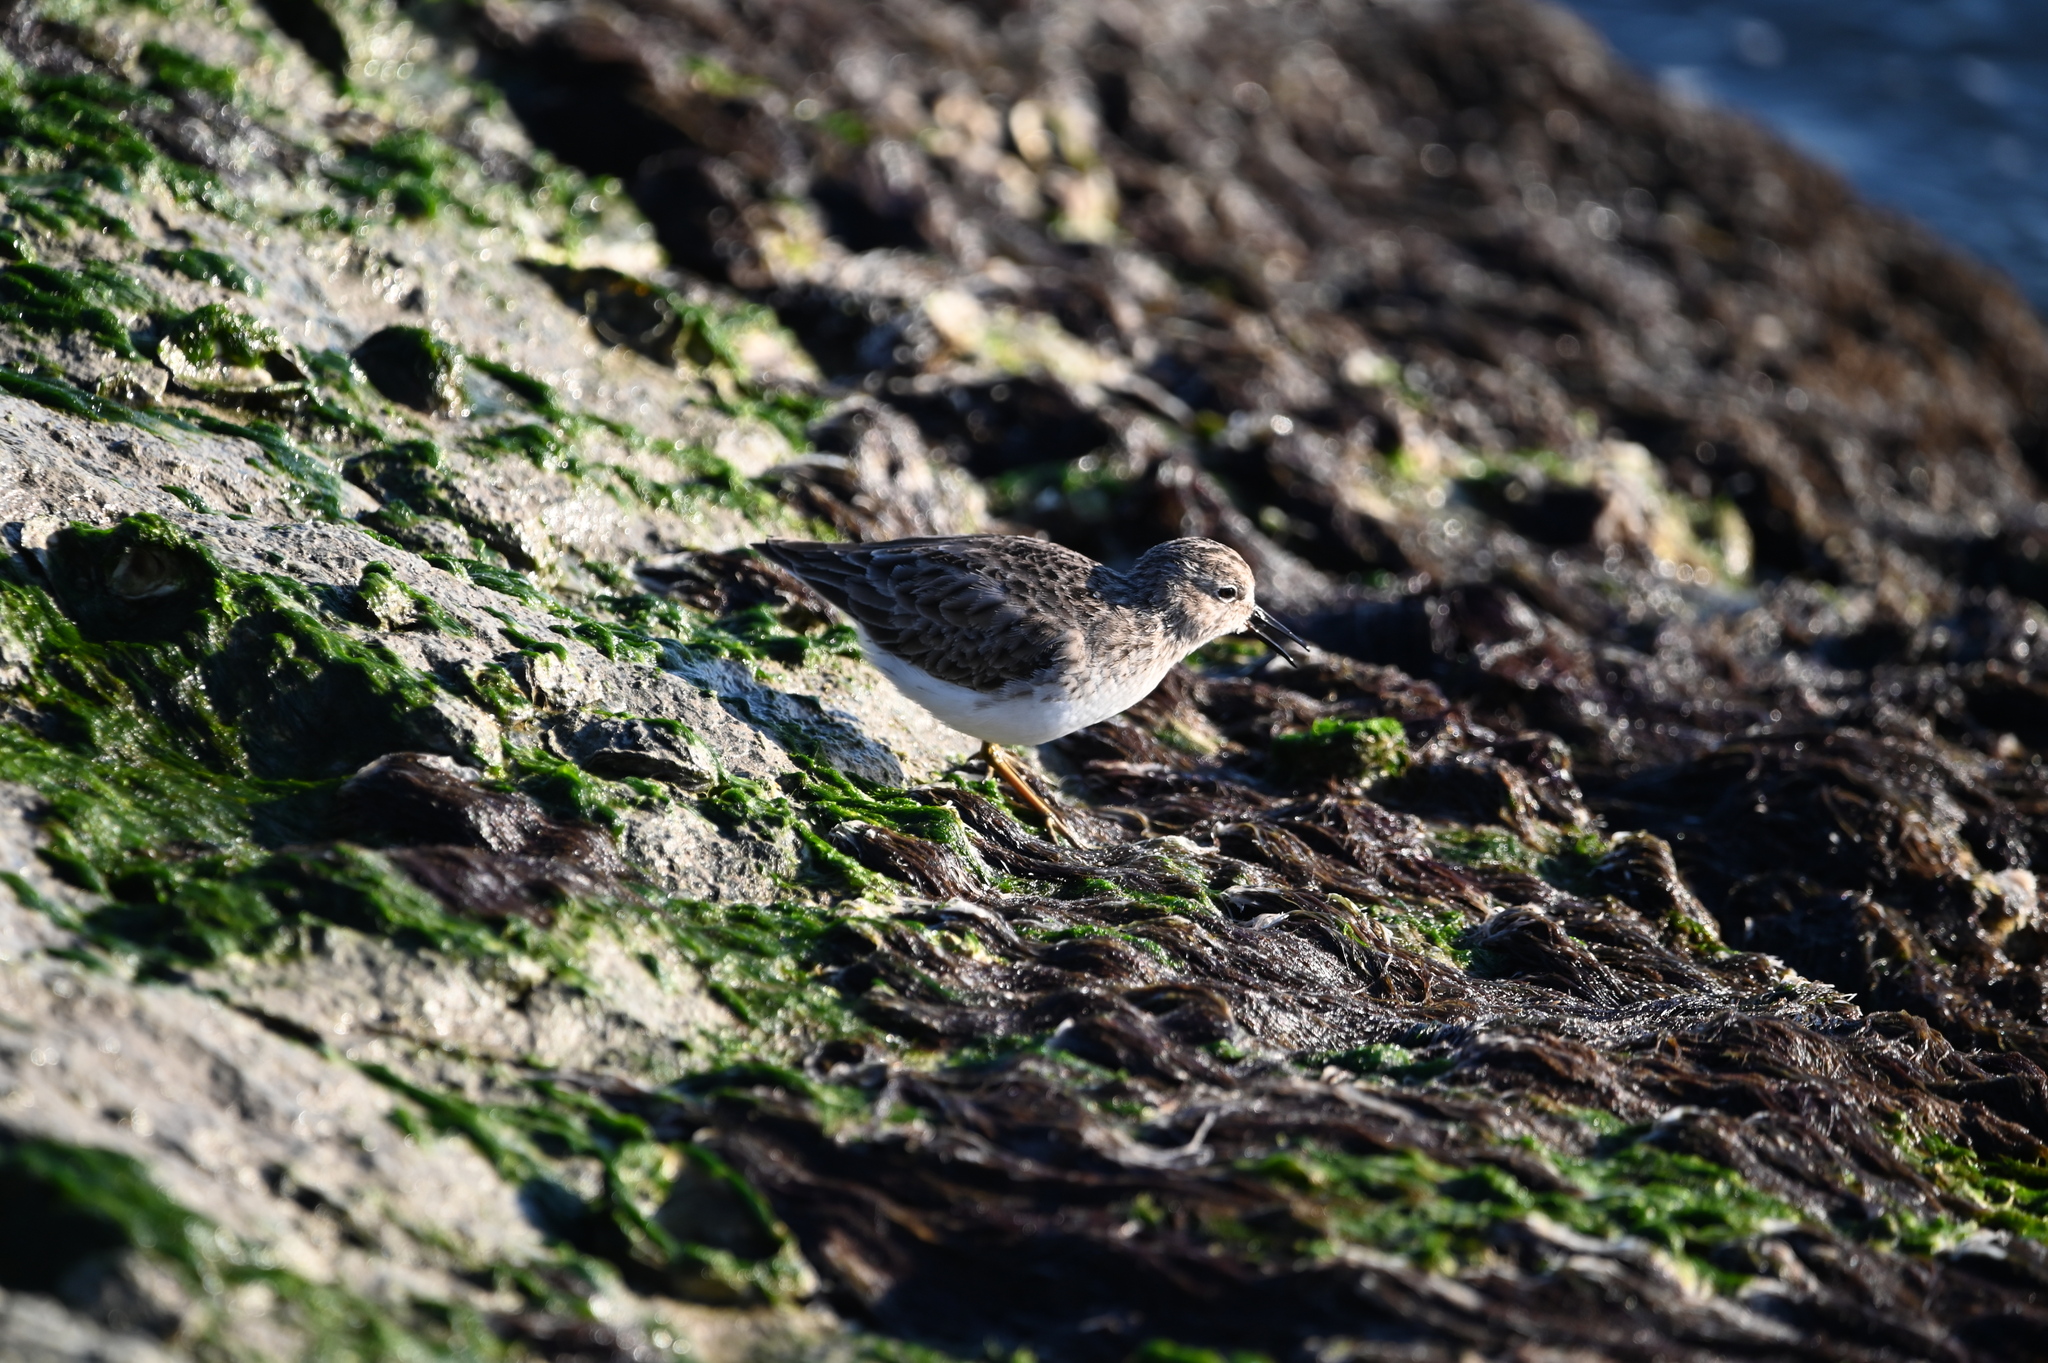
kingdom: Animalia
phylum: Chordata
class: Aves
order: Charadriiformes
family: Scolopacidae
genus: Calidris
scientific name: Calidris minutilla
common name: Least sandpiper
